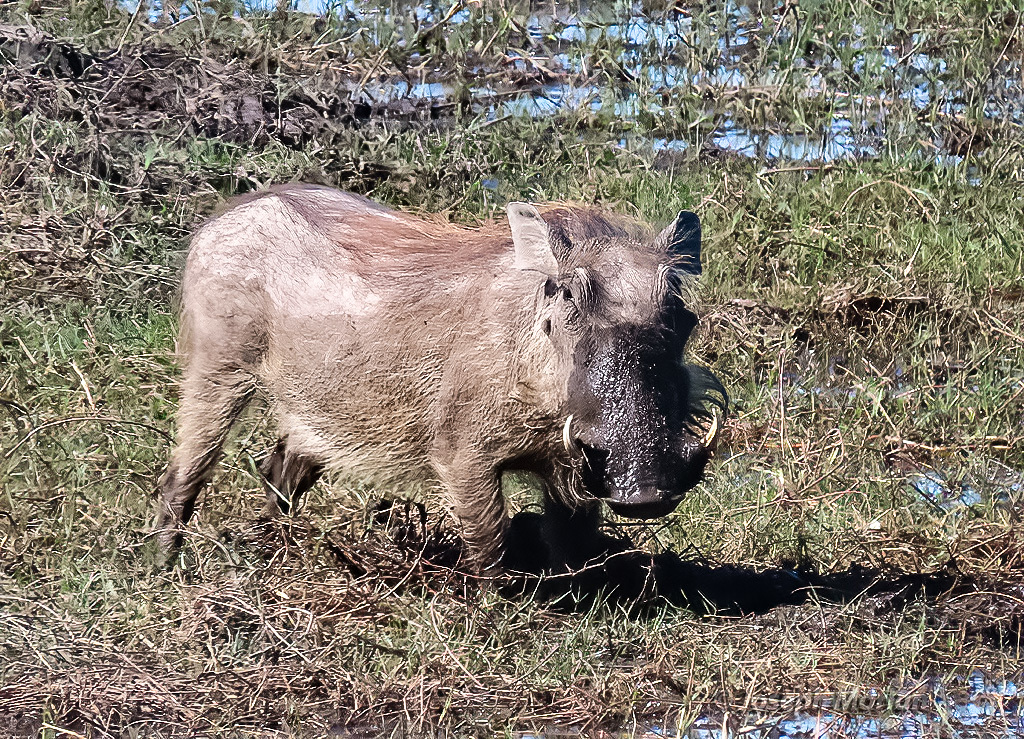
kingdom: Animalia
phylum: Chordata
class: Mammalia
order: Artiodactyla
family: Suidae
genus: Phacochoerus
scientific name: Phacochoerus africanus
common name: Common warthog
